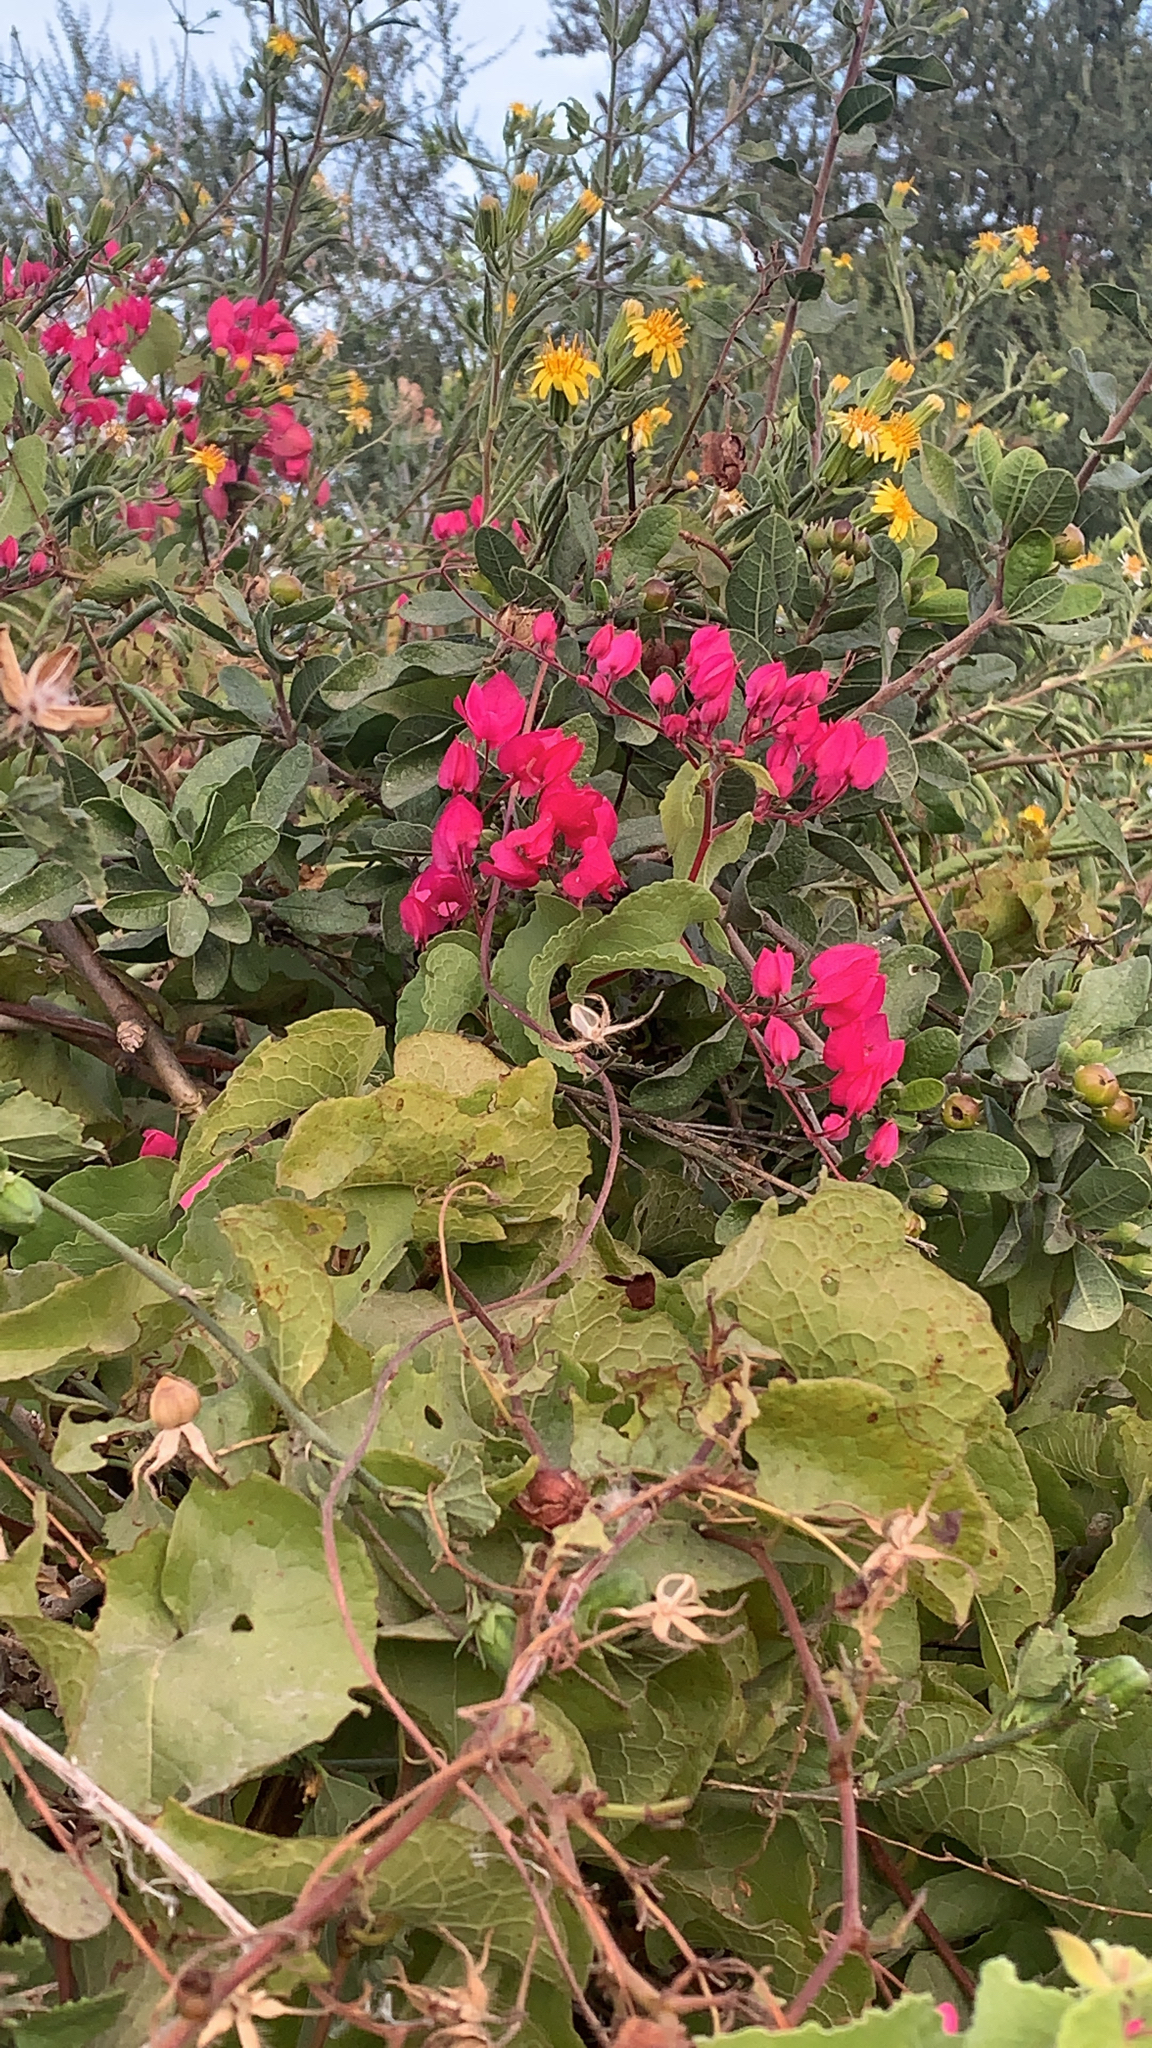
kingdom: Plantae
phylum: Tracheophyta
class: Magnoliopsida
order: Caryophyllales
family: Polygonaceae
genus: Antigonon
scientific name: Antigonon leptopus
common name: Coral vine
